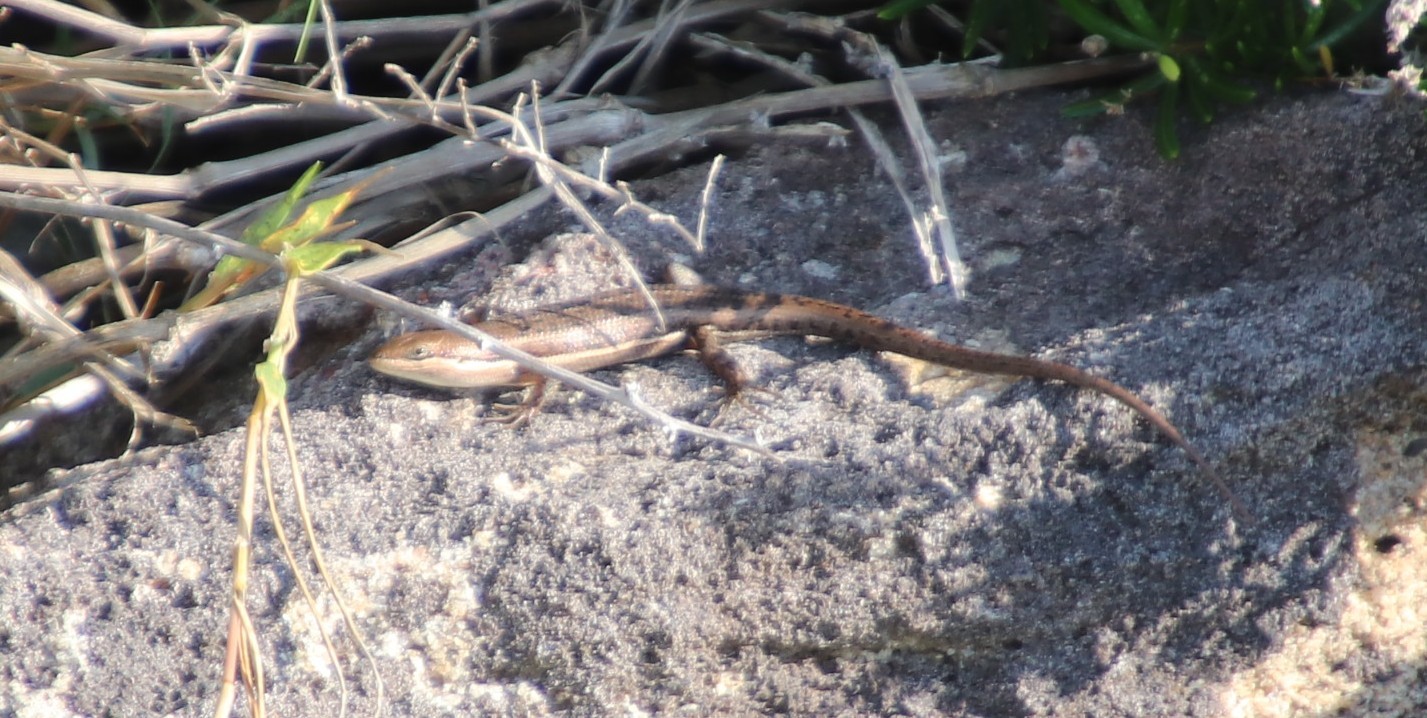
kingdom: Animalia
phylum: Chordata
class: Squamata
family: Scincidae
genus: Trachylepis
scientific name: Trachylepis varia
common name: Eastern variable skink
